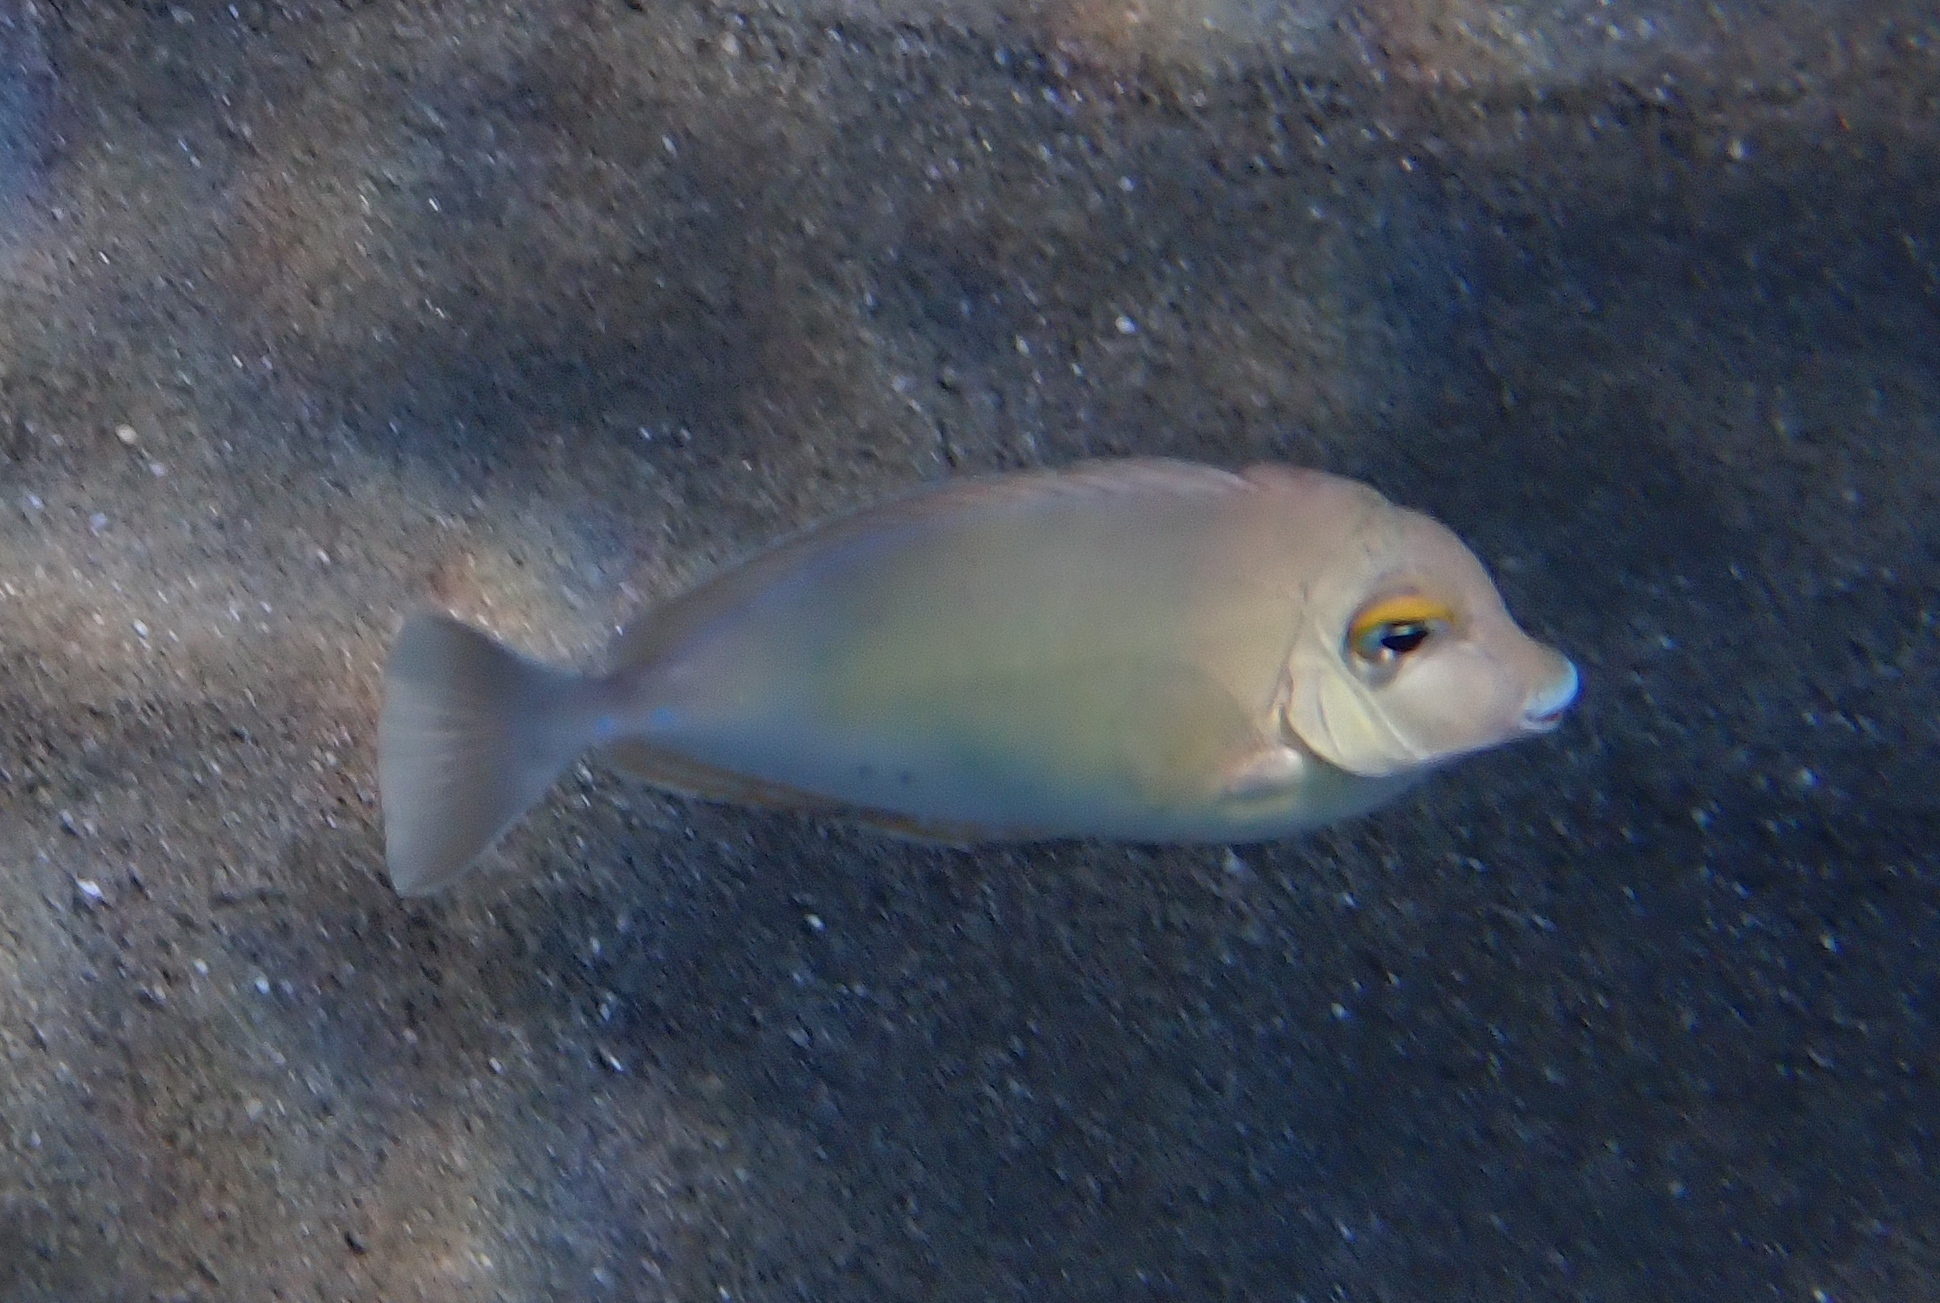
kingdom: Animalia
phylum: Chordata
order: Perciformes
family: Acanthuridae
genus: Naso
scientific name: Naso unicornis
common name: Bluespine unicornfish
